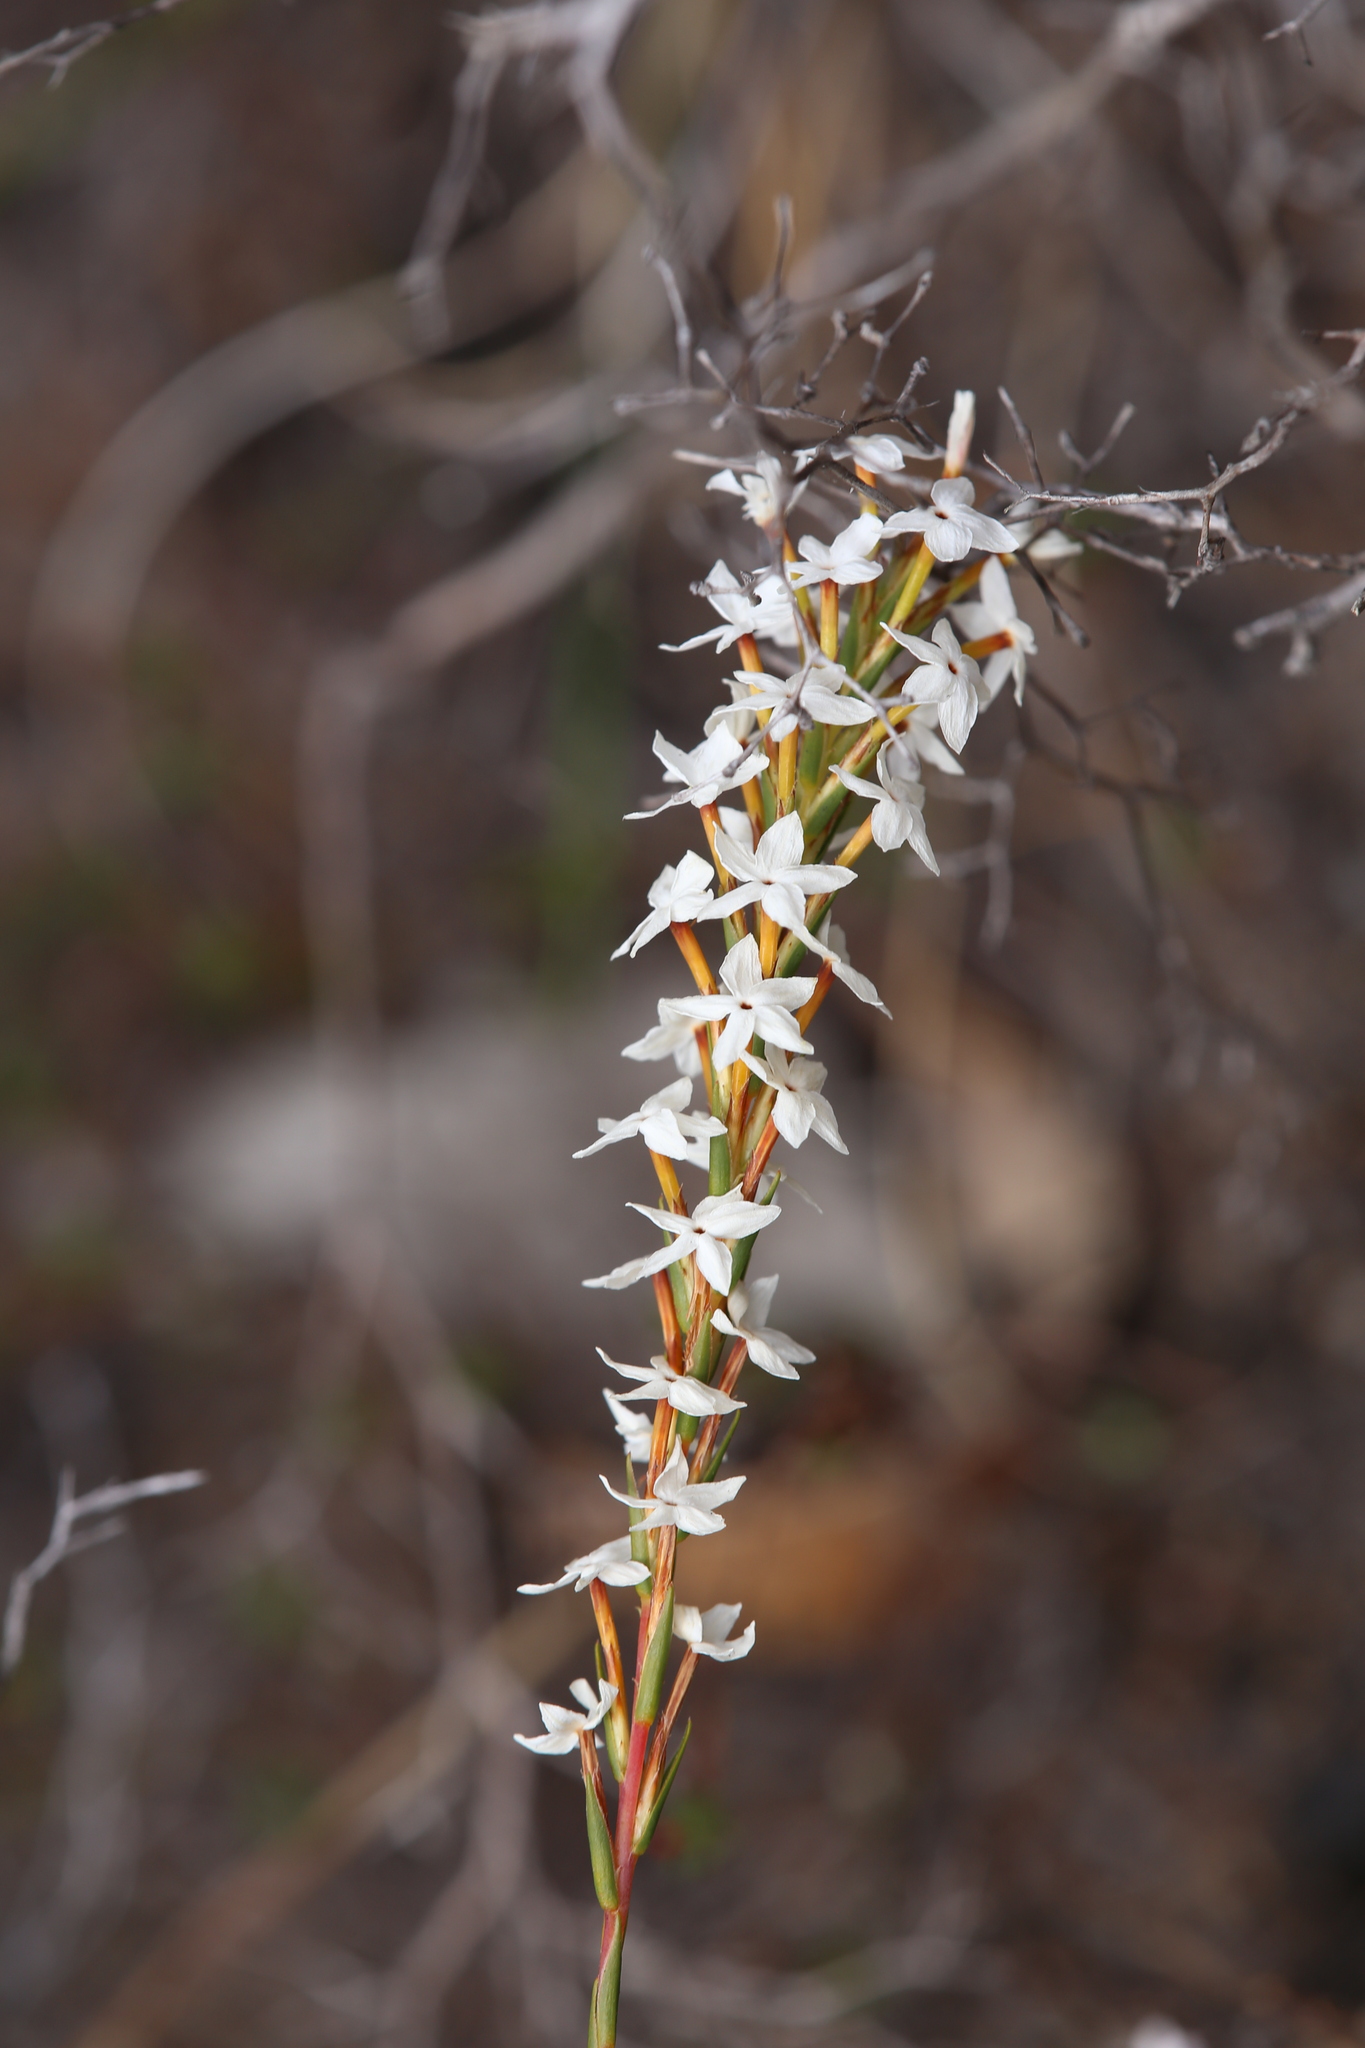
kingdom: Plantae
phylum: Tracheophyta
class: Magnoliopsida
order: Celastrales
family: Celastraceae
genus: Stackhousia
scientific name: Stackhousia monogyna
